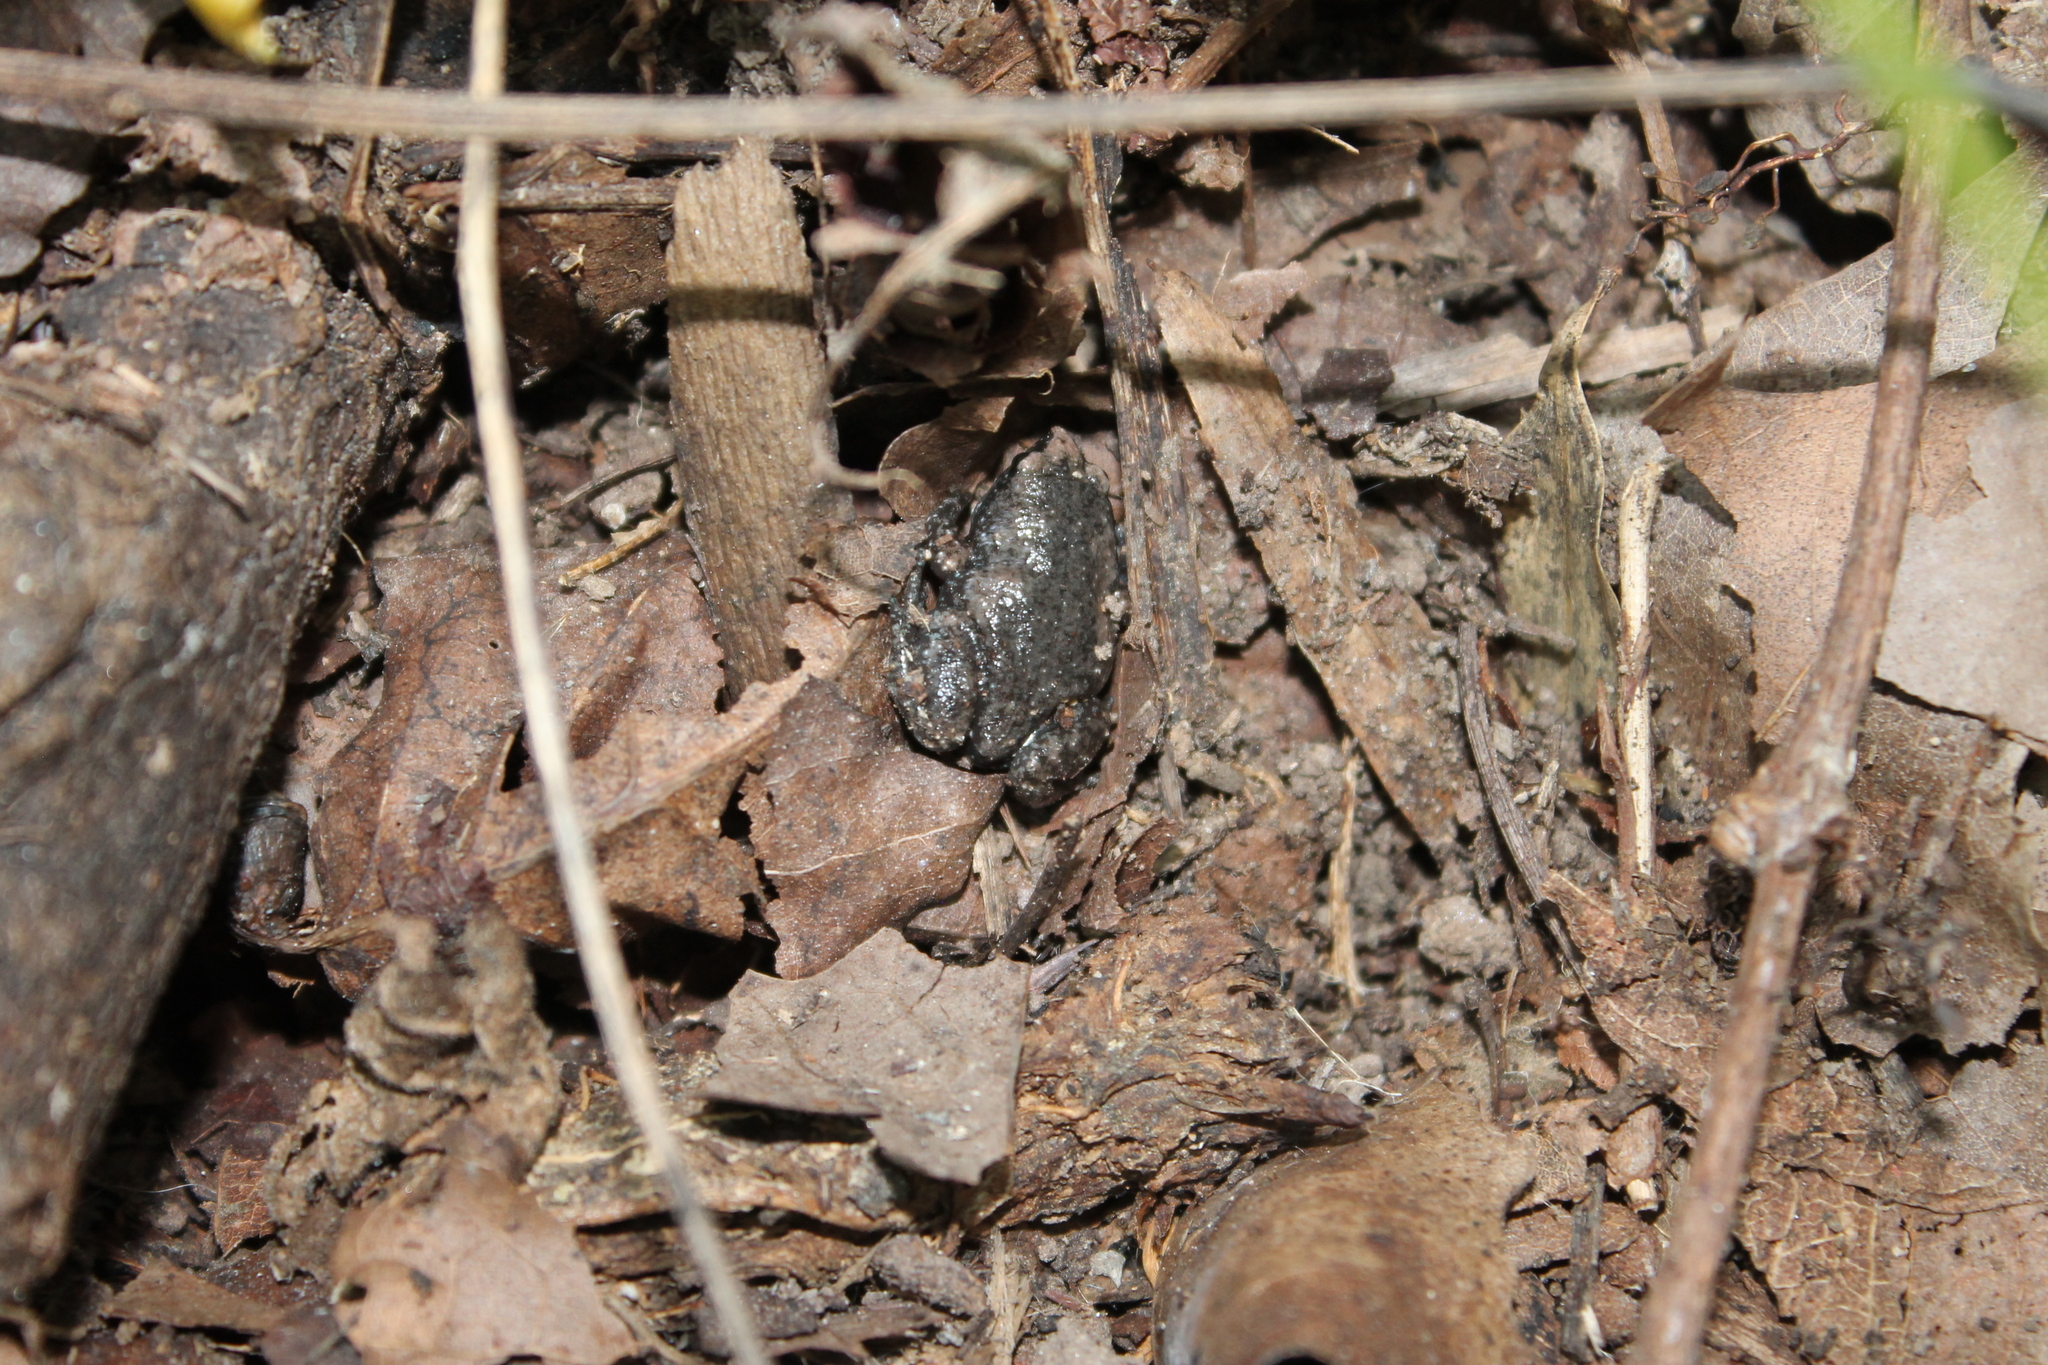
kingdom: Animalia
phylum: Chordata
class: Amphibia
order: Anura
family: Microhylidae
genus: Gastrophryne
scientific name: Gastrophryne carolinensis
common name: Eastern narrowmouth toad
